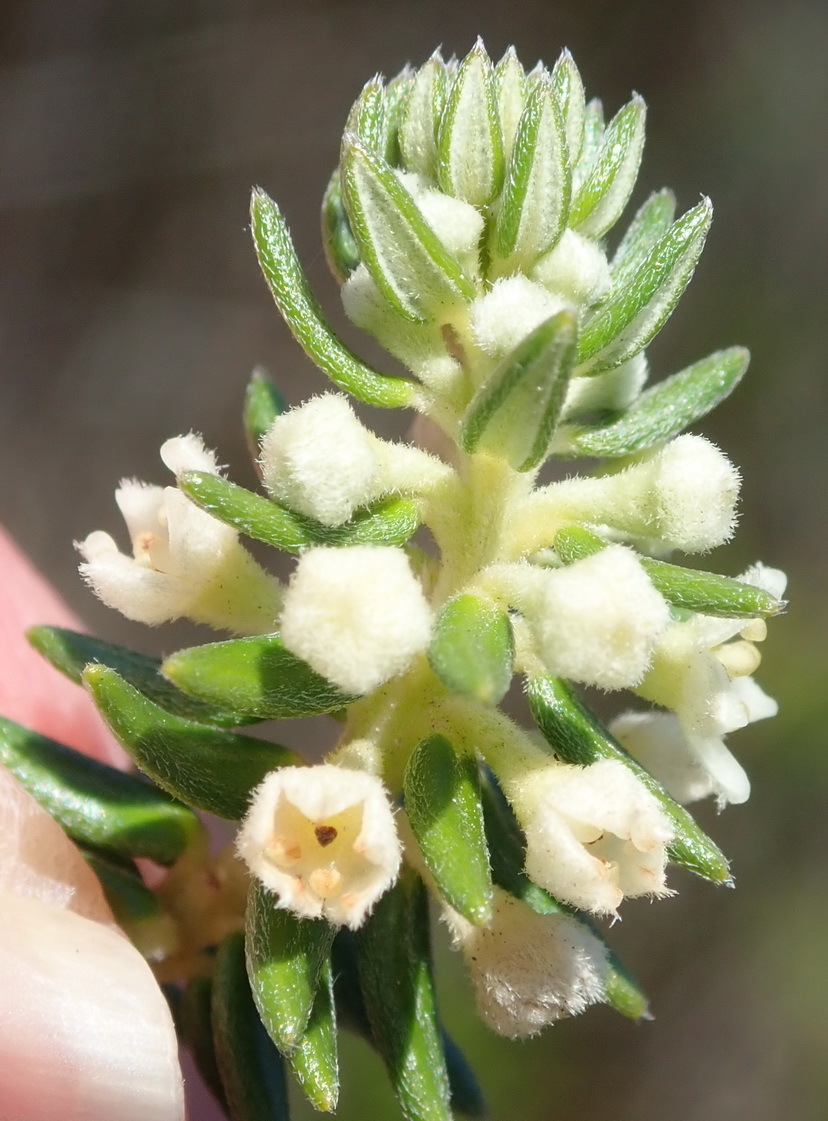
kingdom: Plantae
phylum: Tracheophyta
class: Magnoliopsida
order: Rosales
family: Rhamnaceae
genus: Phylica
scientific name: Phylica axillaris
